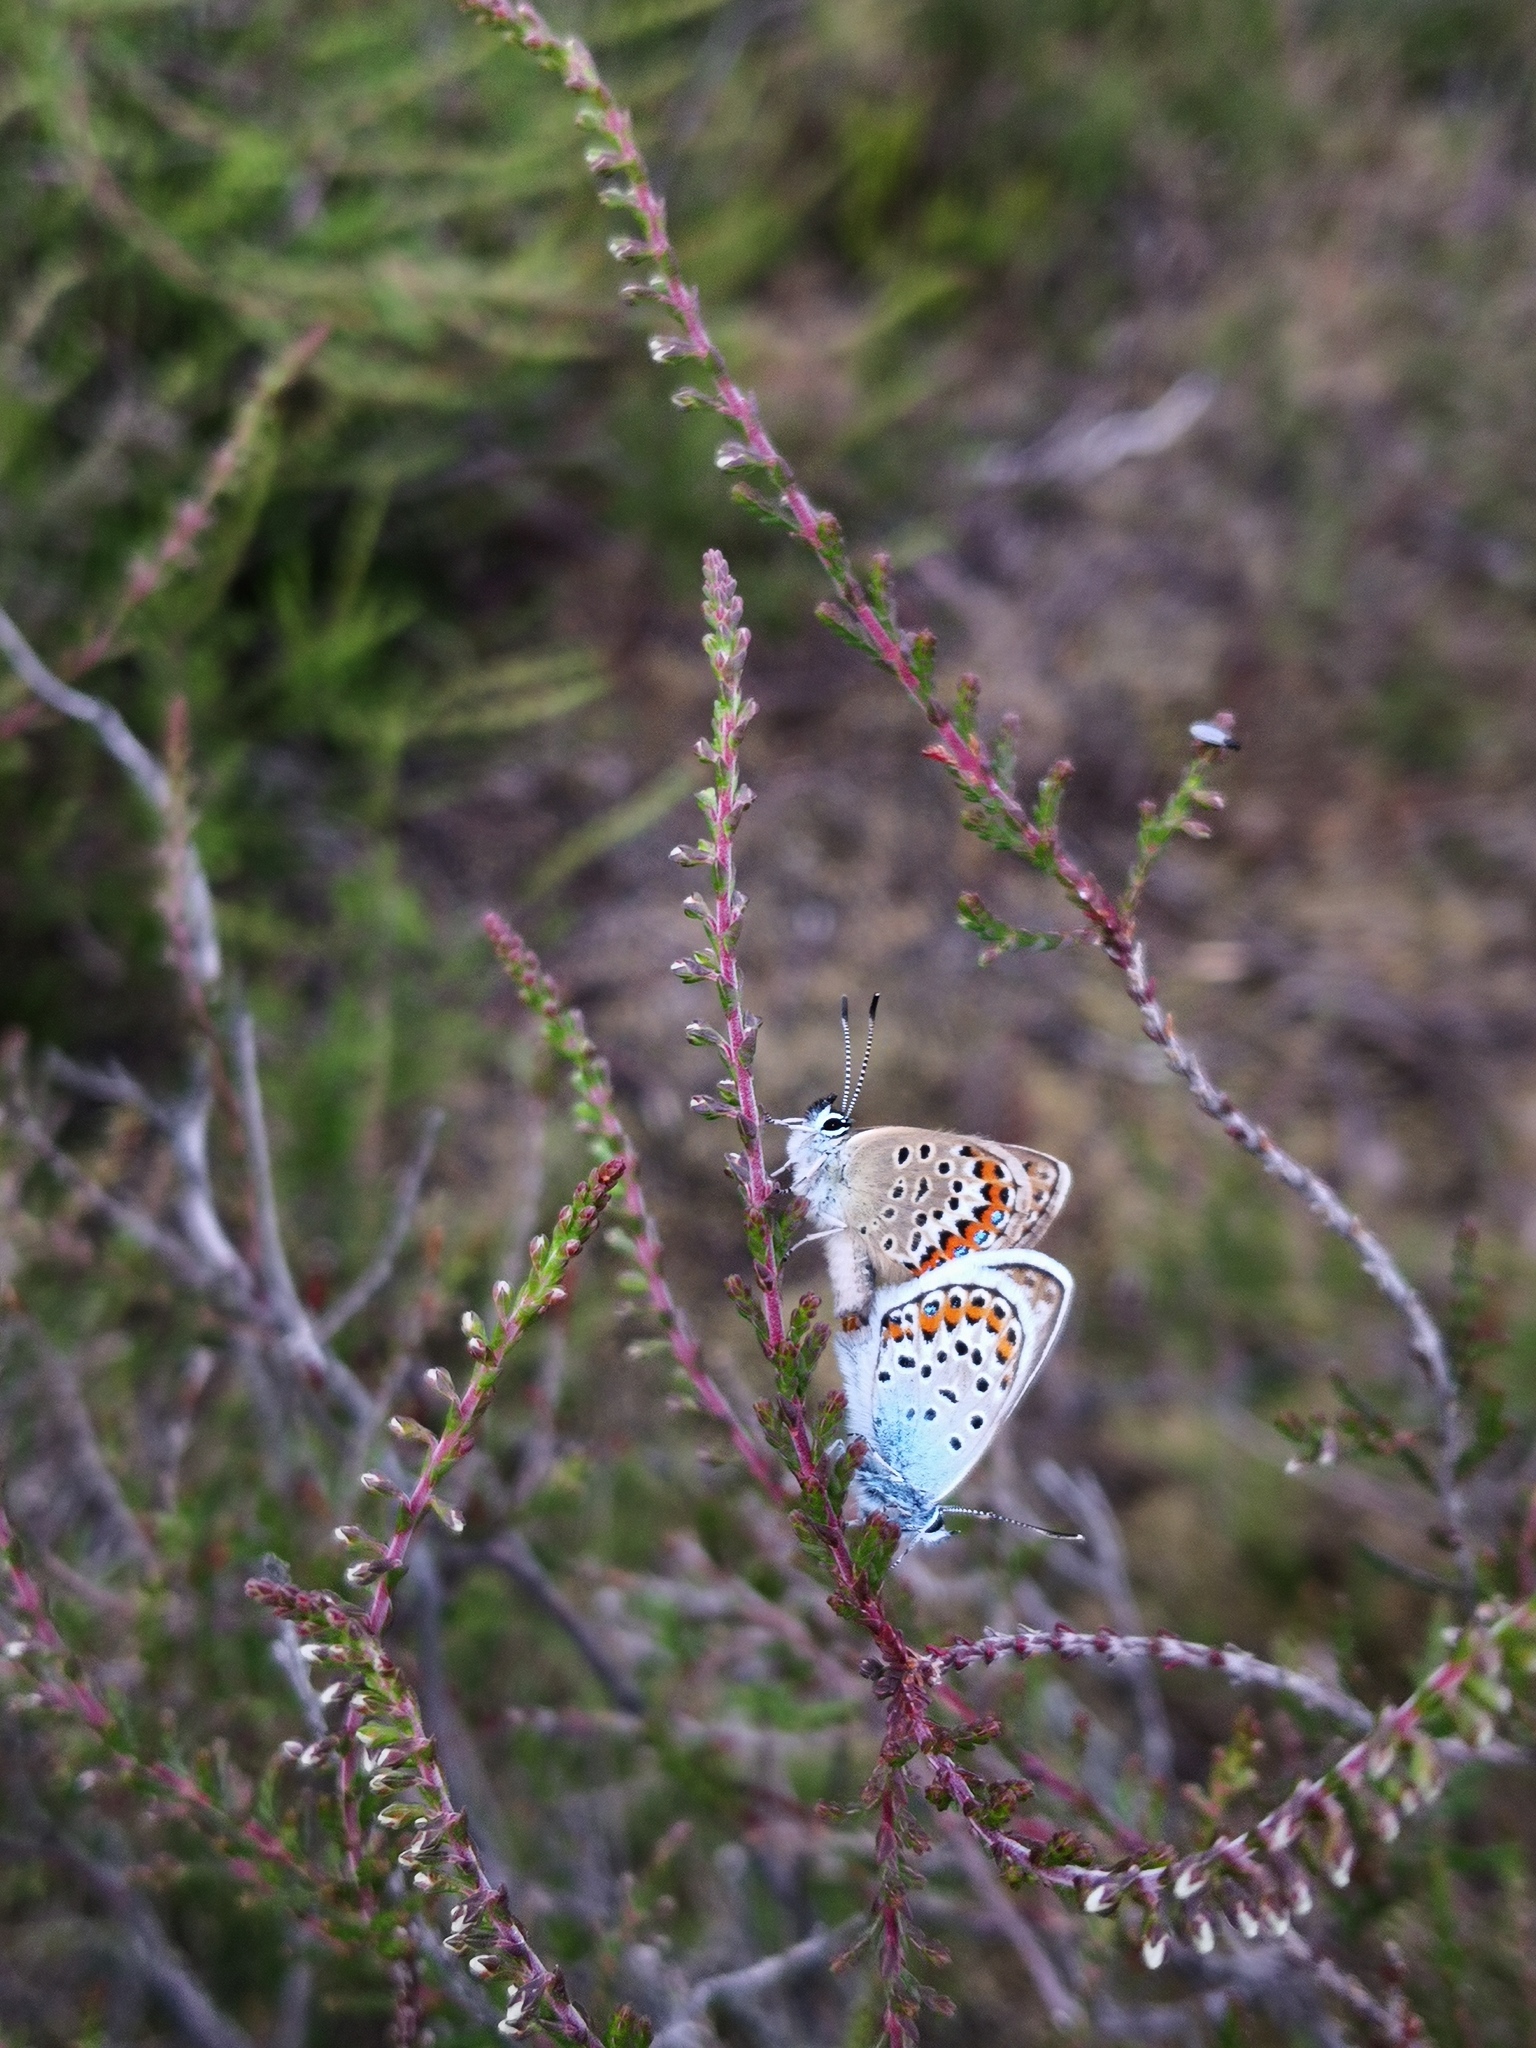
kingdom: Animalia
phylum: Arthropoda
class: Insecta
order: Lepidoptera
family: Lycaenidae
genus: Plebejus
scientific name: Plebejus argus
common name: Silver-studded blue
